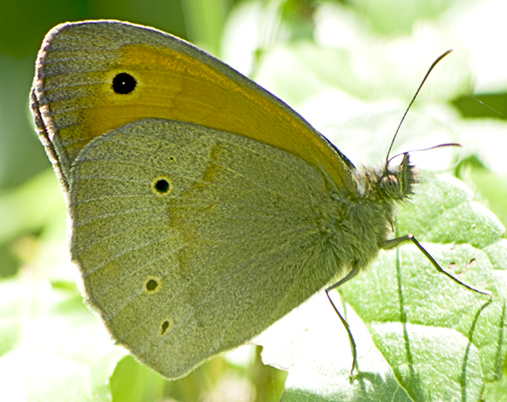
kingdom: Animalia
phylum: Arthropoda
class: Insecta
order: Lepidoptera
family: Nymphalidae
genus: Maniola
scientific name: Maniola jurtina
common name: Meadow brown
